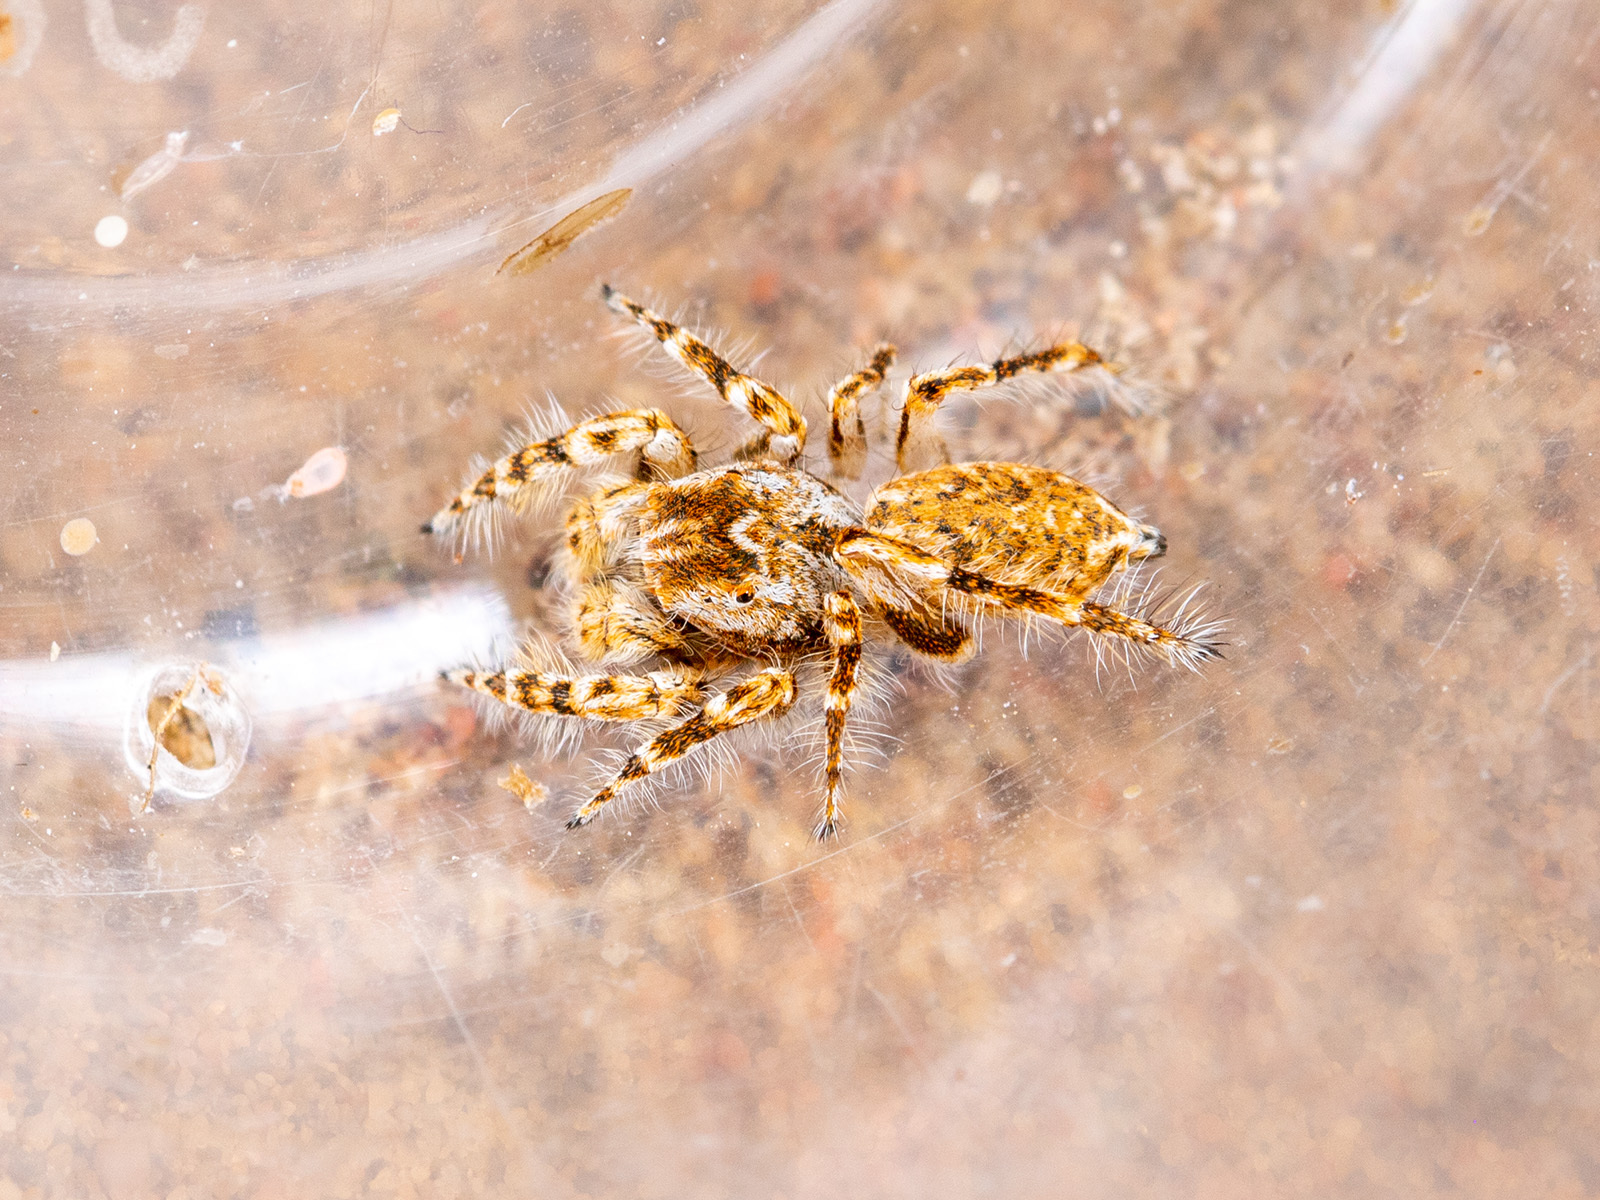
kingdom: Animalia
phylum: Arthropoda
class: Arachnida
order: Araneae
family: Salticidae
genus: Yllenus
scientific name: Yllenus turkestanicus
